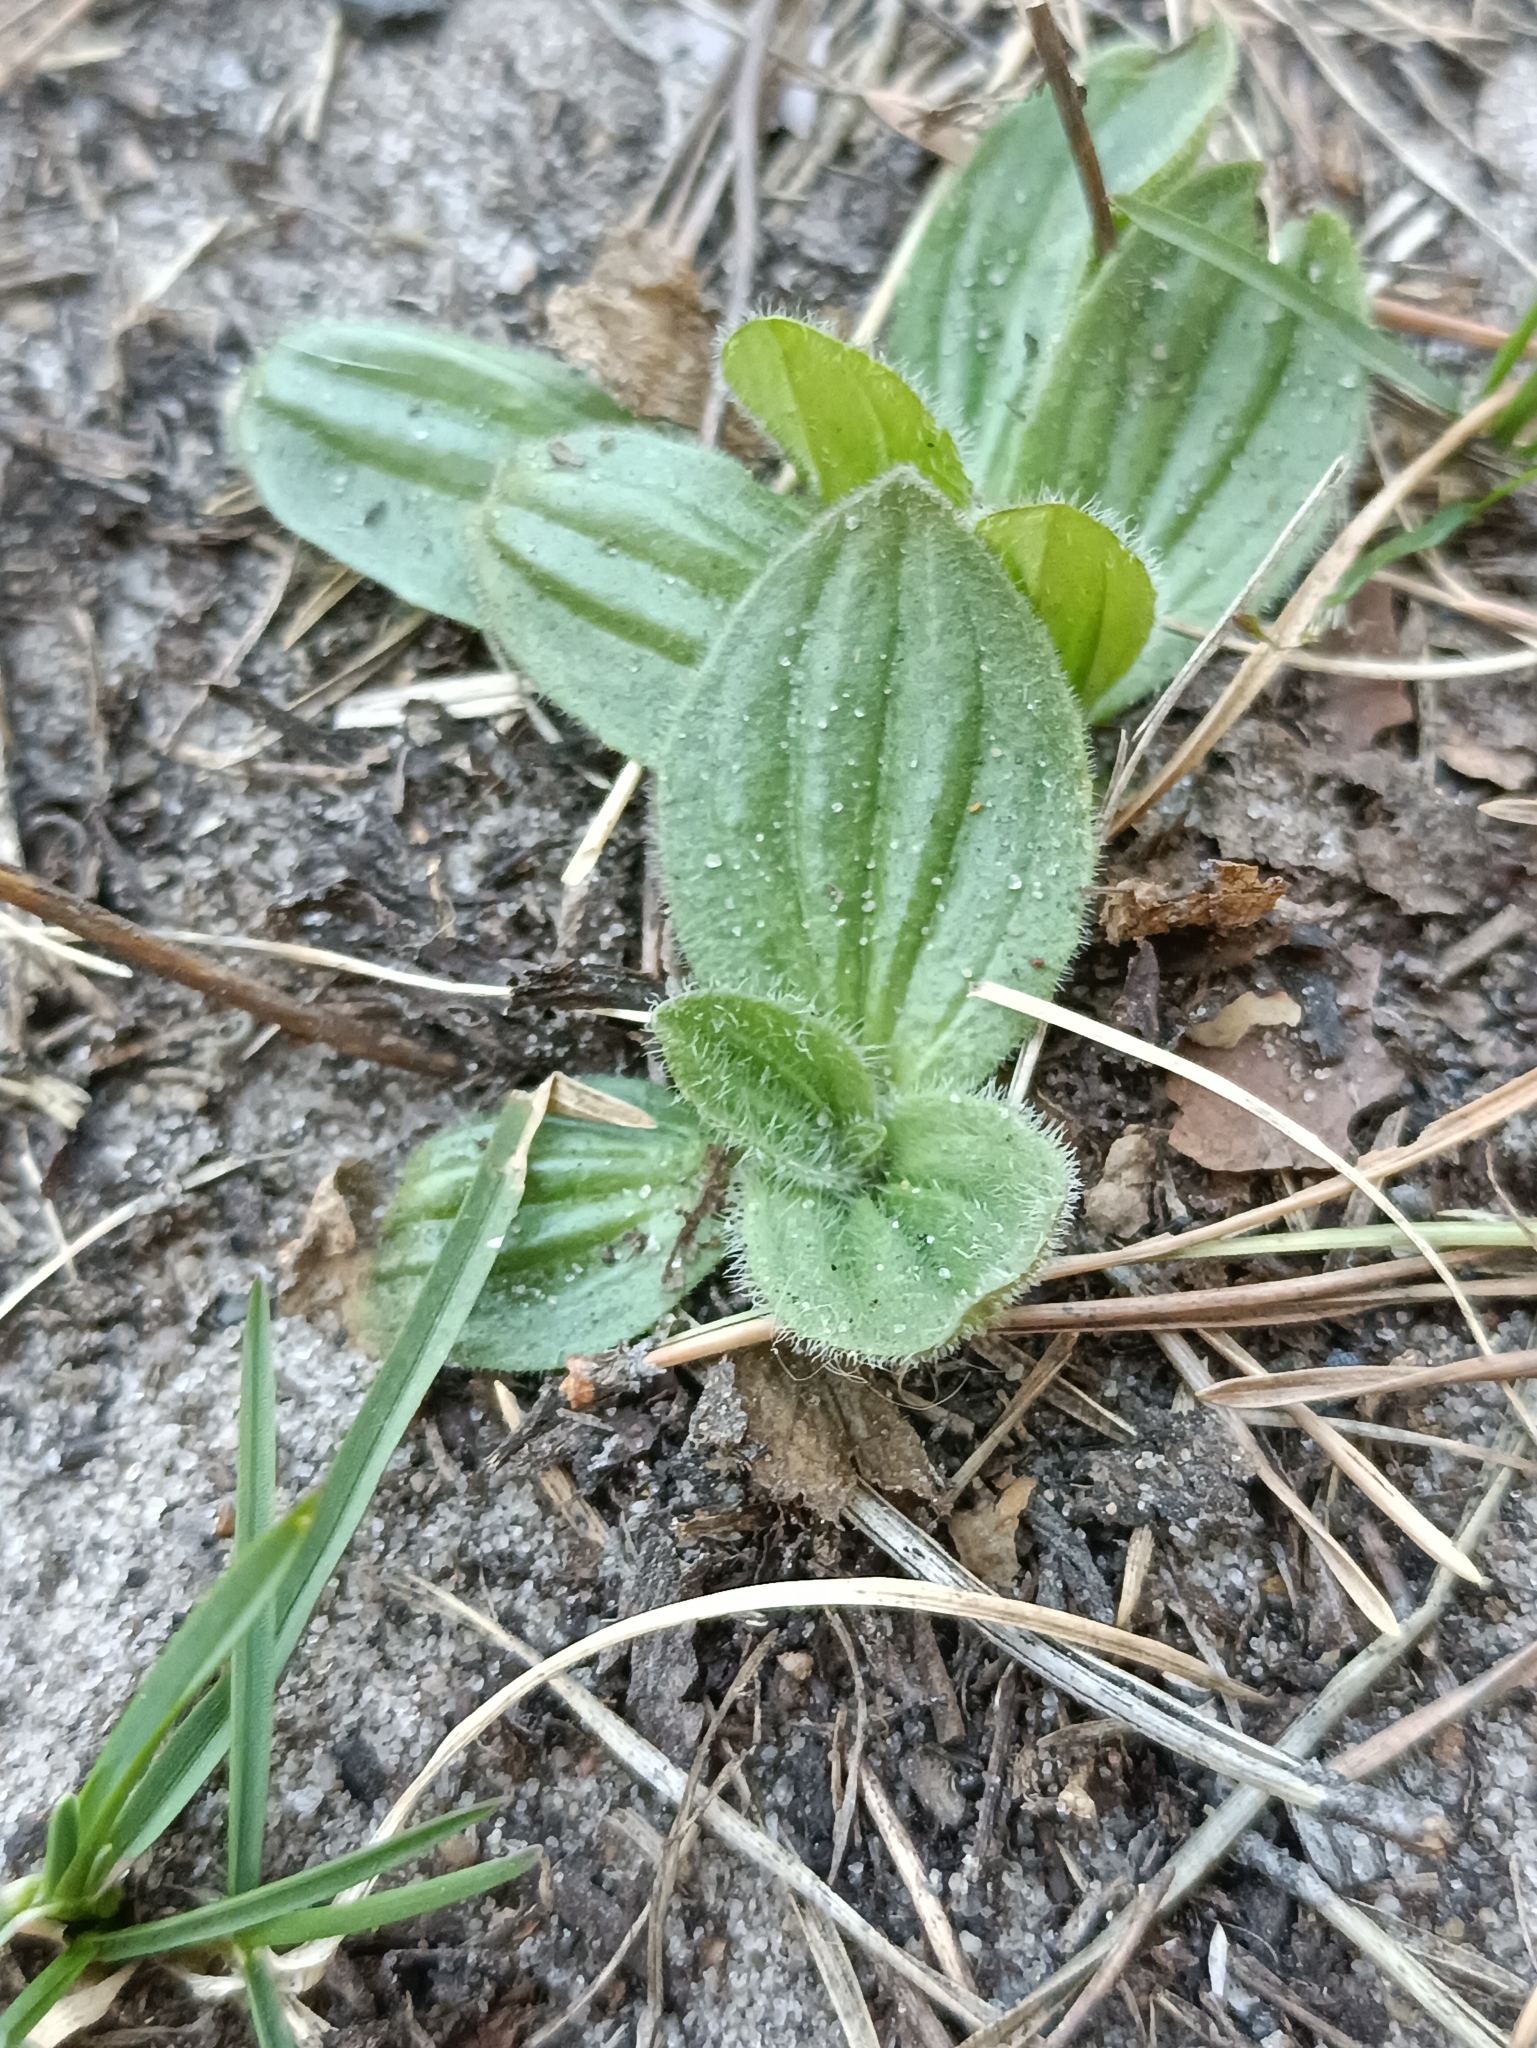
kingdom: Plantae
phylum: Tracheophyta
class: Magnoliopsida
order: Lamiales
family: Plantaginaceae
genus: Plantago
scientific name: Plantago media
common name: Hoary plantain
